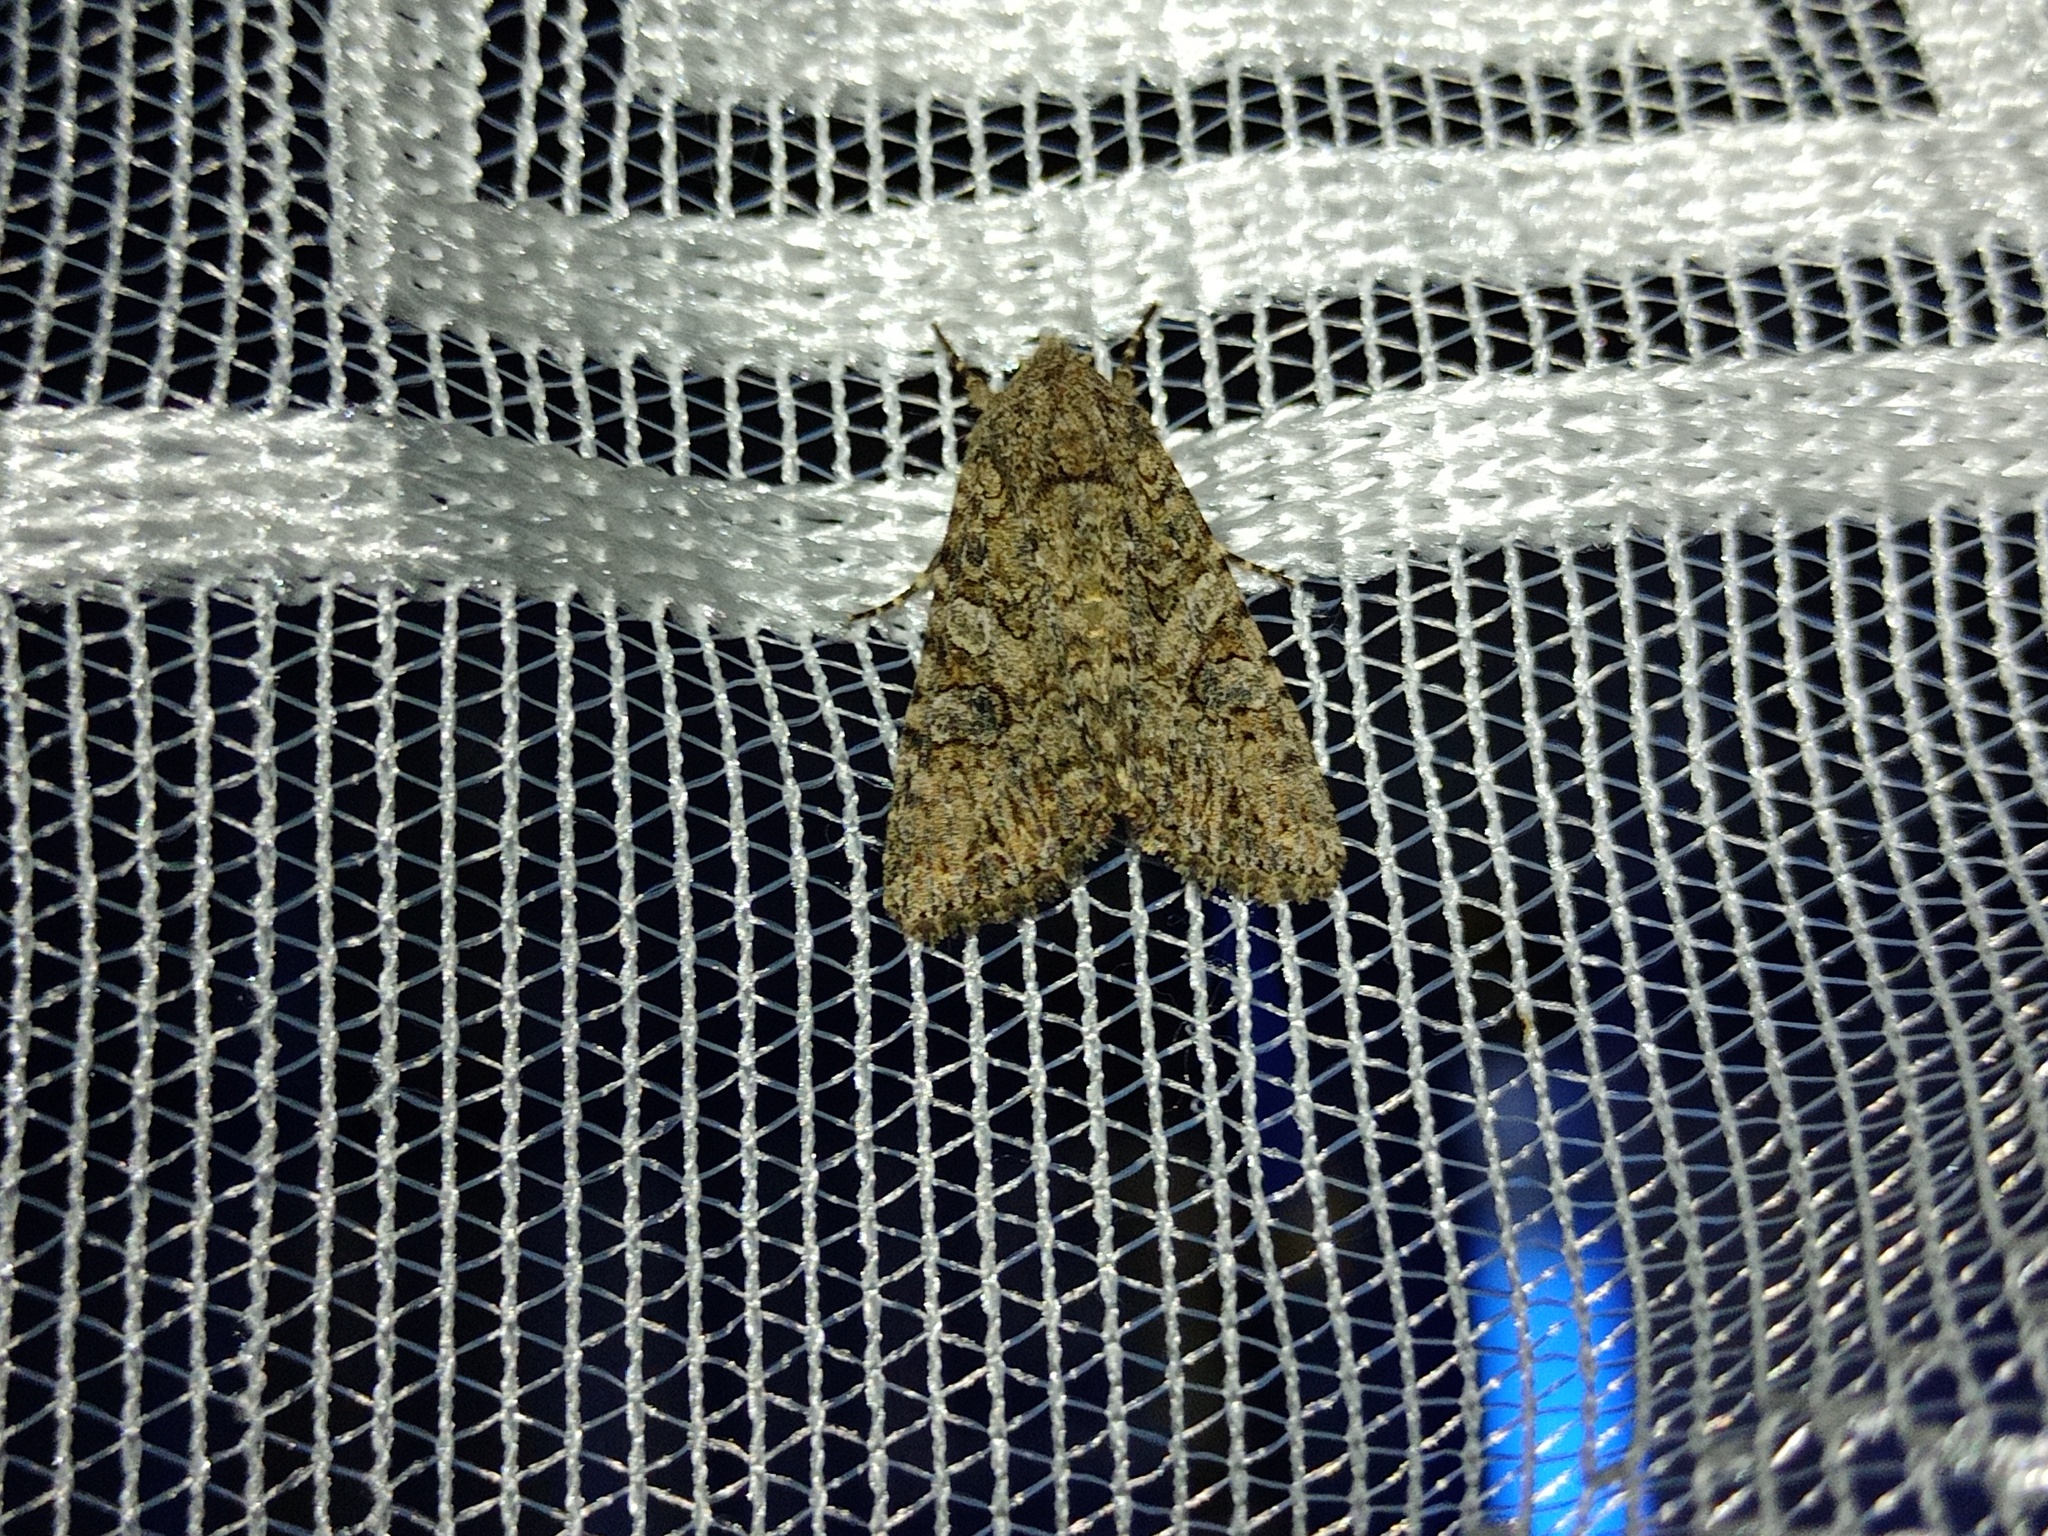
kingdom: Animalia
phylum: Arthropoda
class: Insecta
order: Lepidoptera
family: Noctuidae
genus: Anarta
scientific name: Anarta trifolii
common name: Clover cutworm moth
